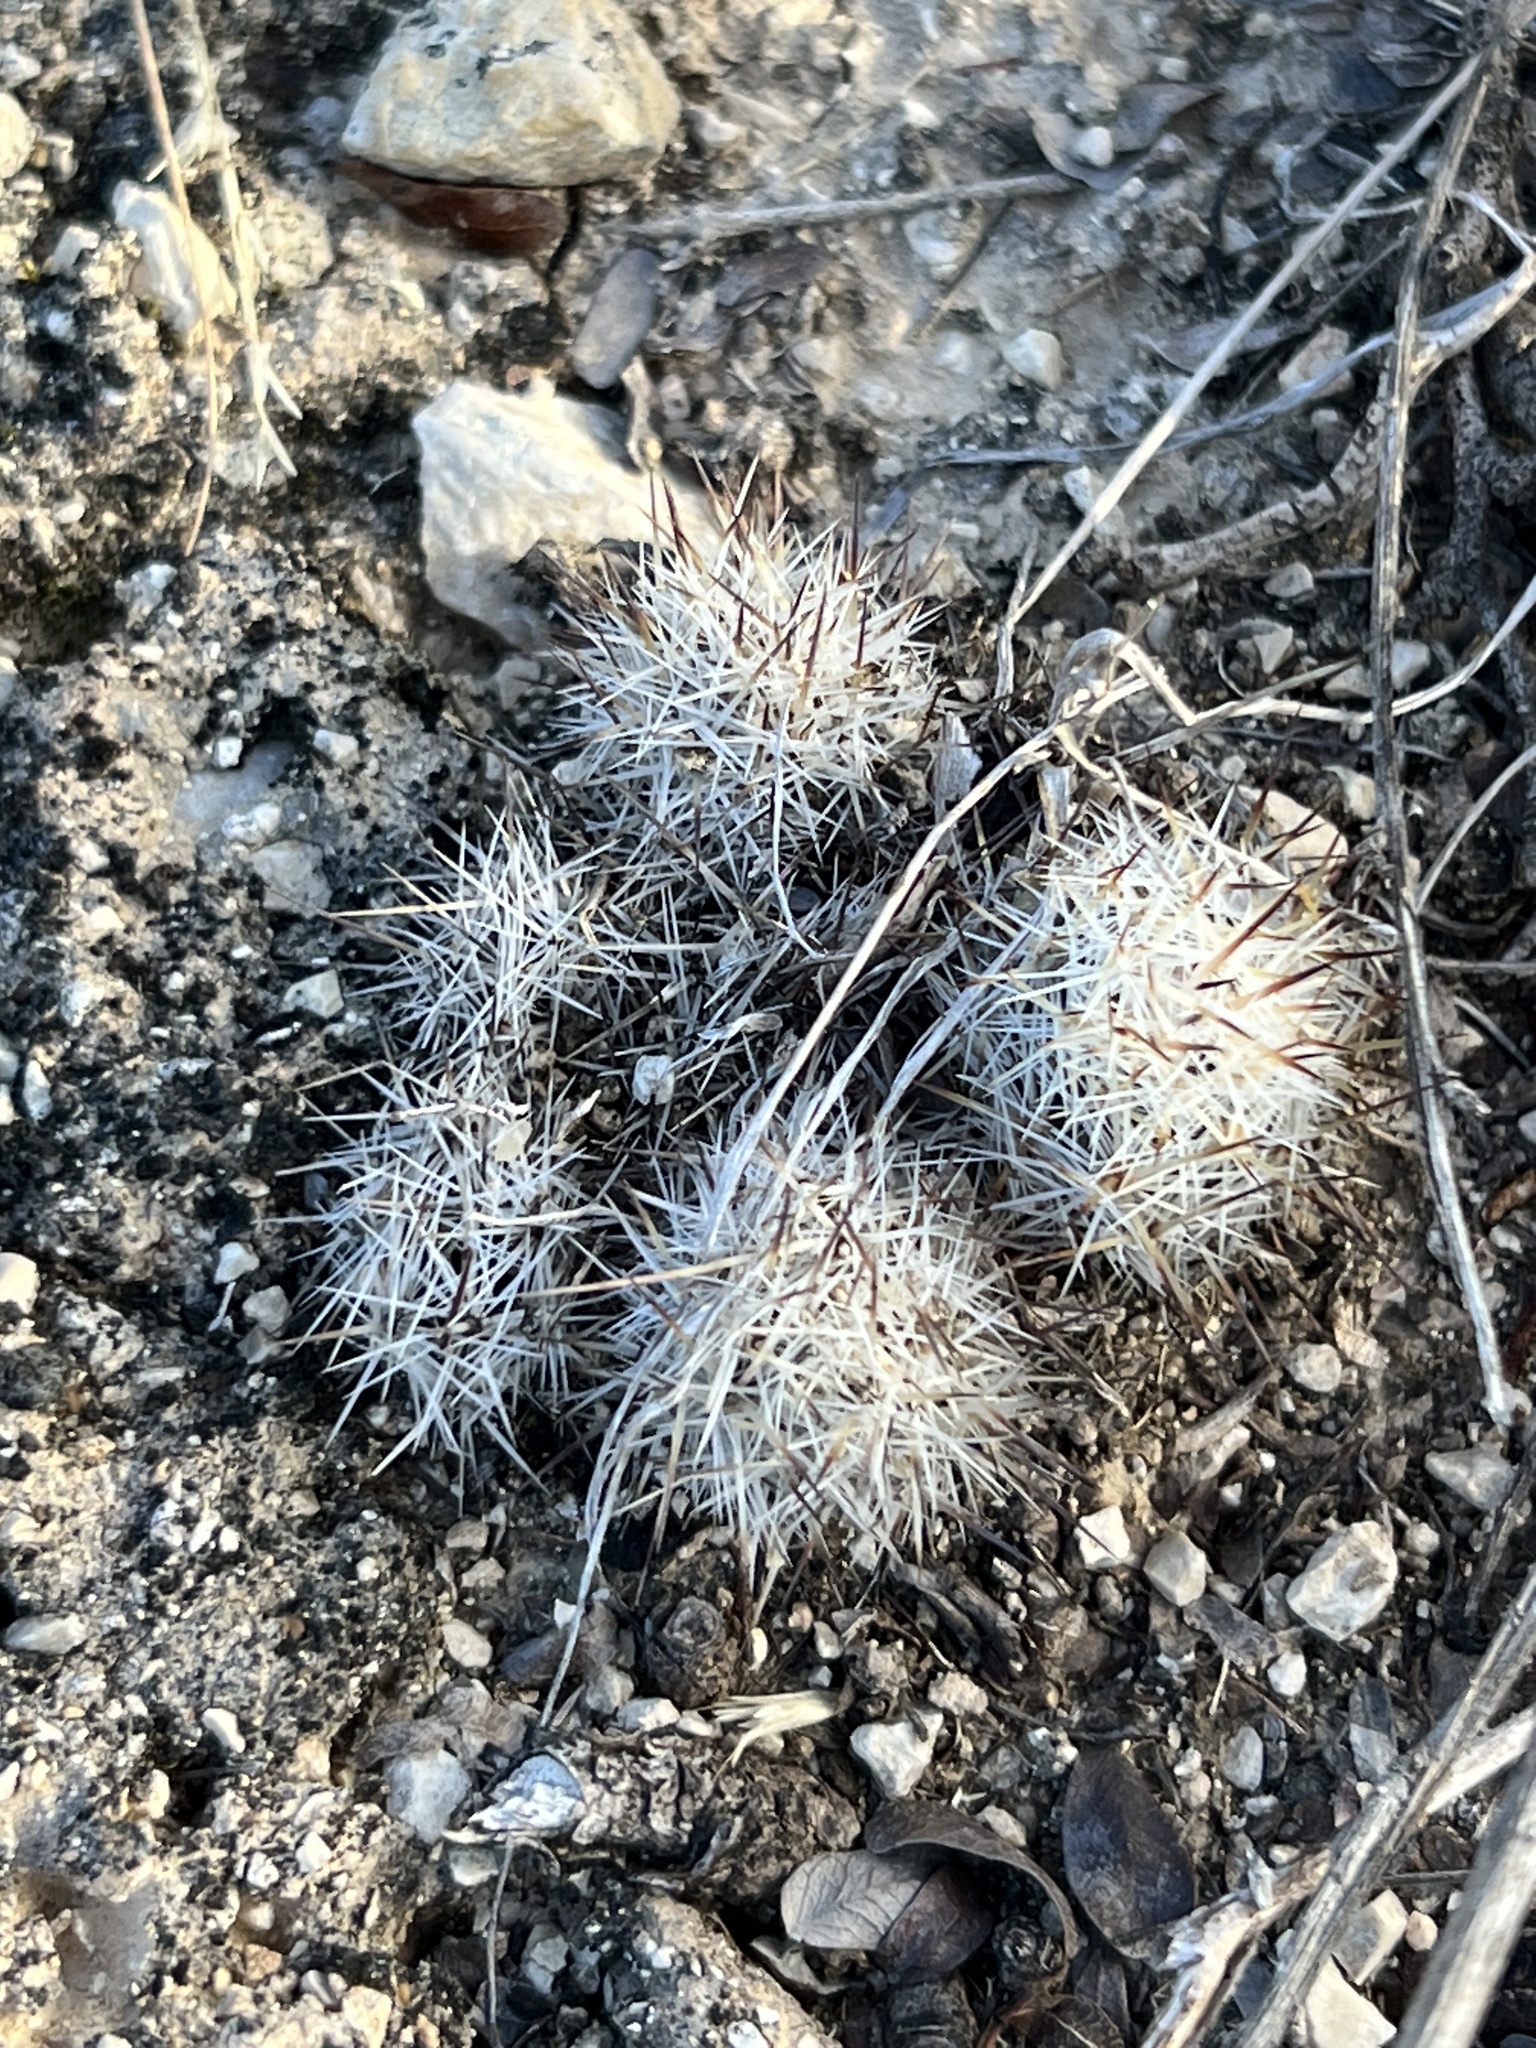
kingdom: Plantae
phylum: Tracheophyta
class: Magnoliopsida
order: Caryophyllales
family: Cactaceae
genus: Pelecyphora
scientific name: Pelecyphora emskoetteriana
